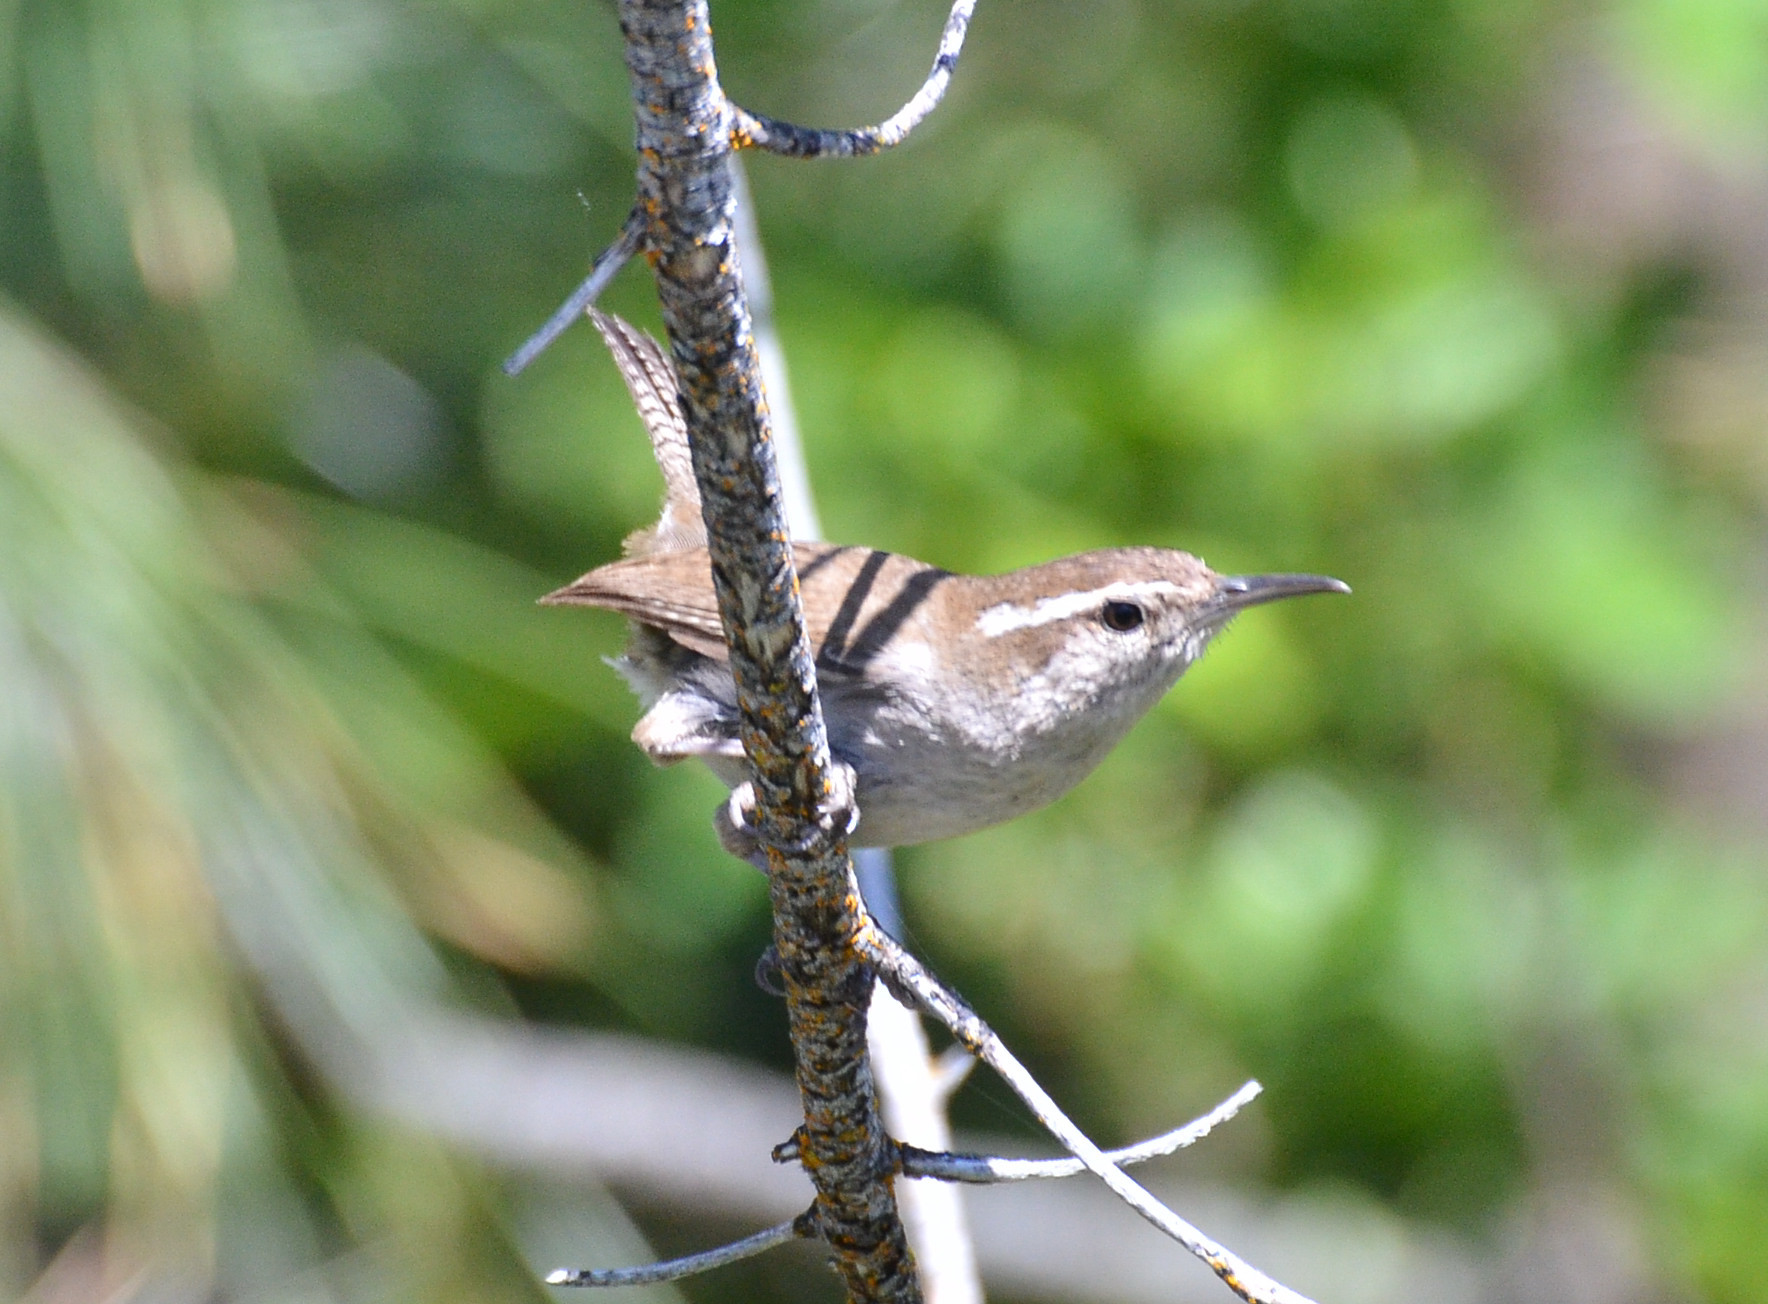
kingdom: Animalia
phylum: Chordata
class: Aves
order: Passeriformes
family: Troglodytidae
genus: Thryomanes
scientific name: Thryomanes bewickii
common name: Bewick's wren
